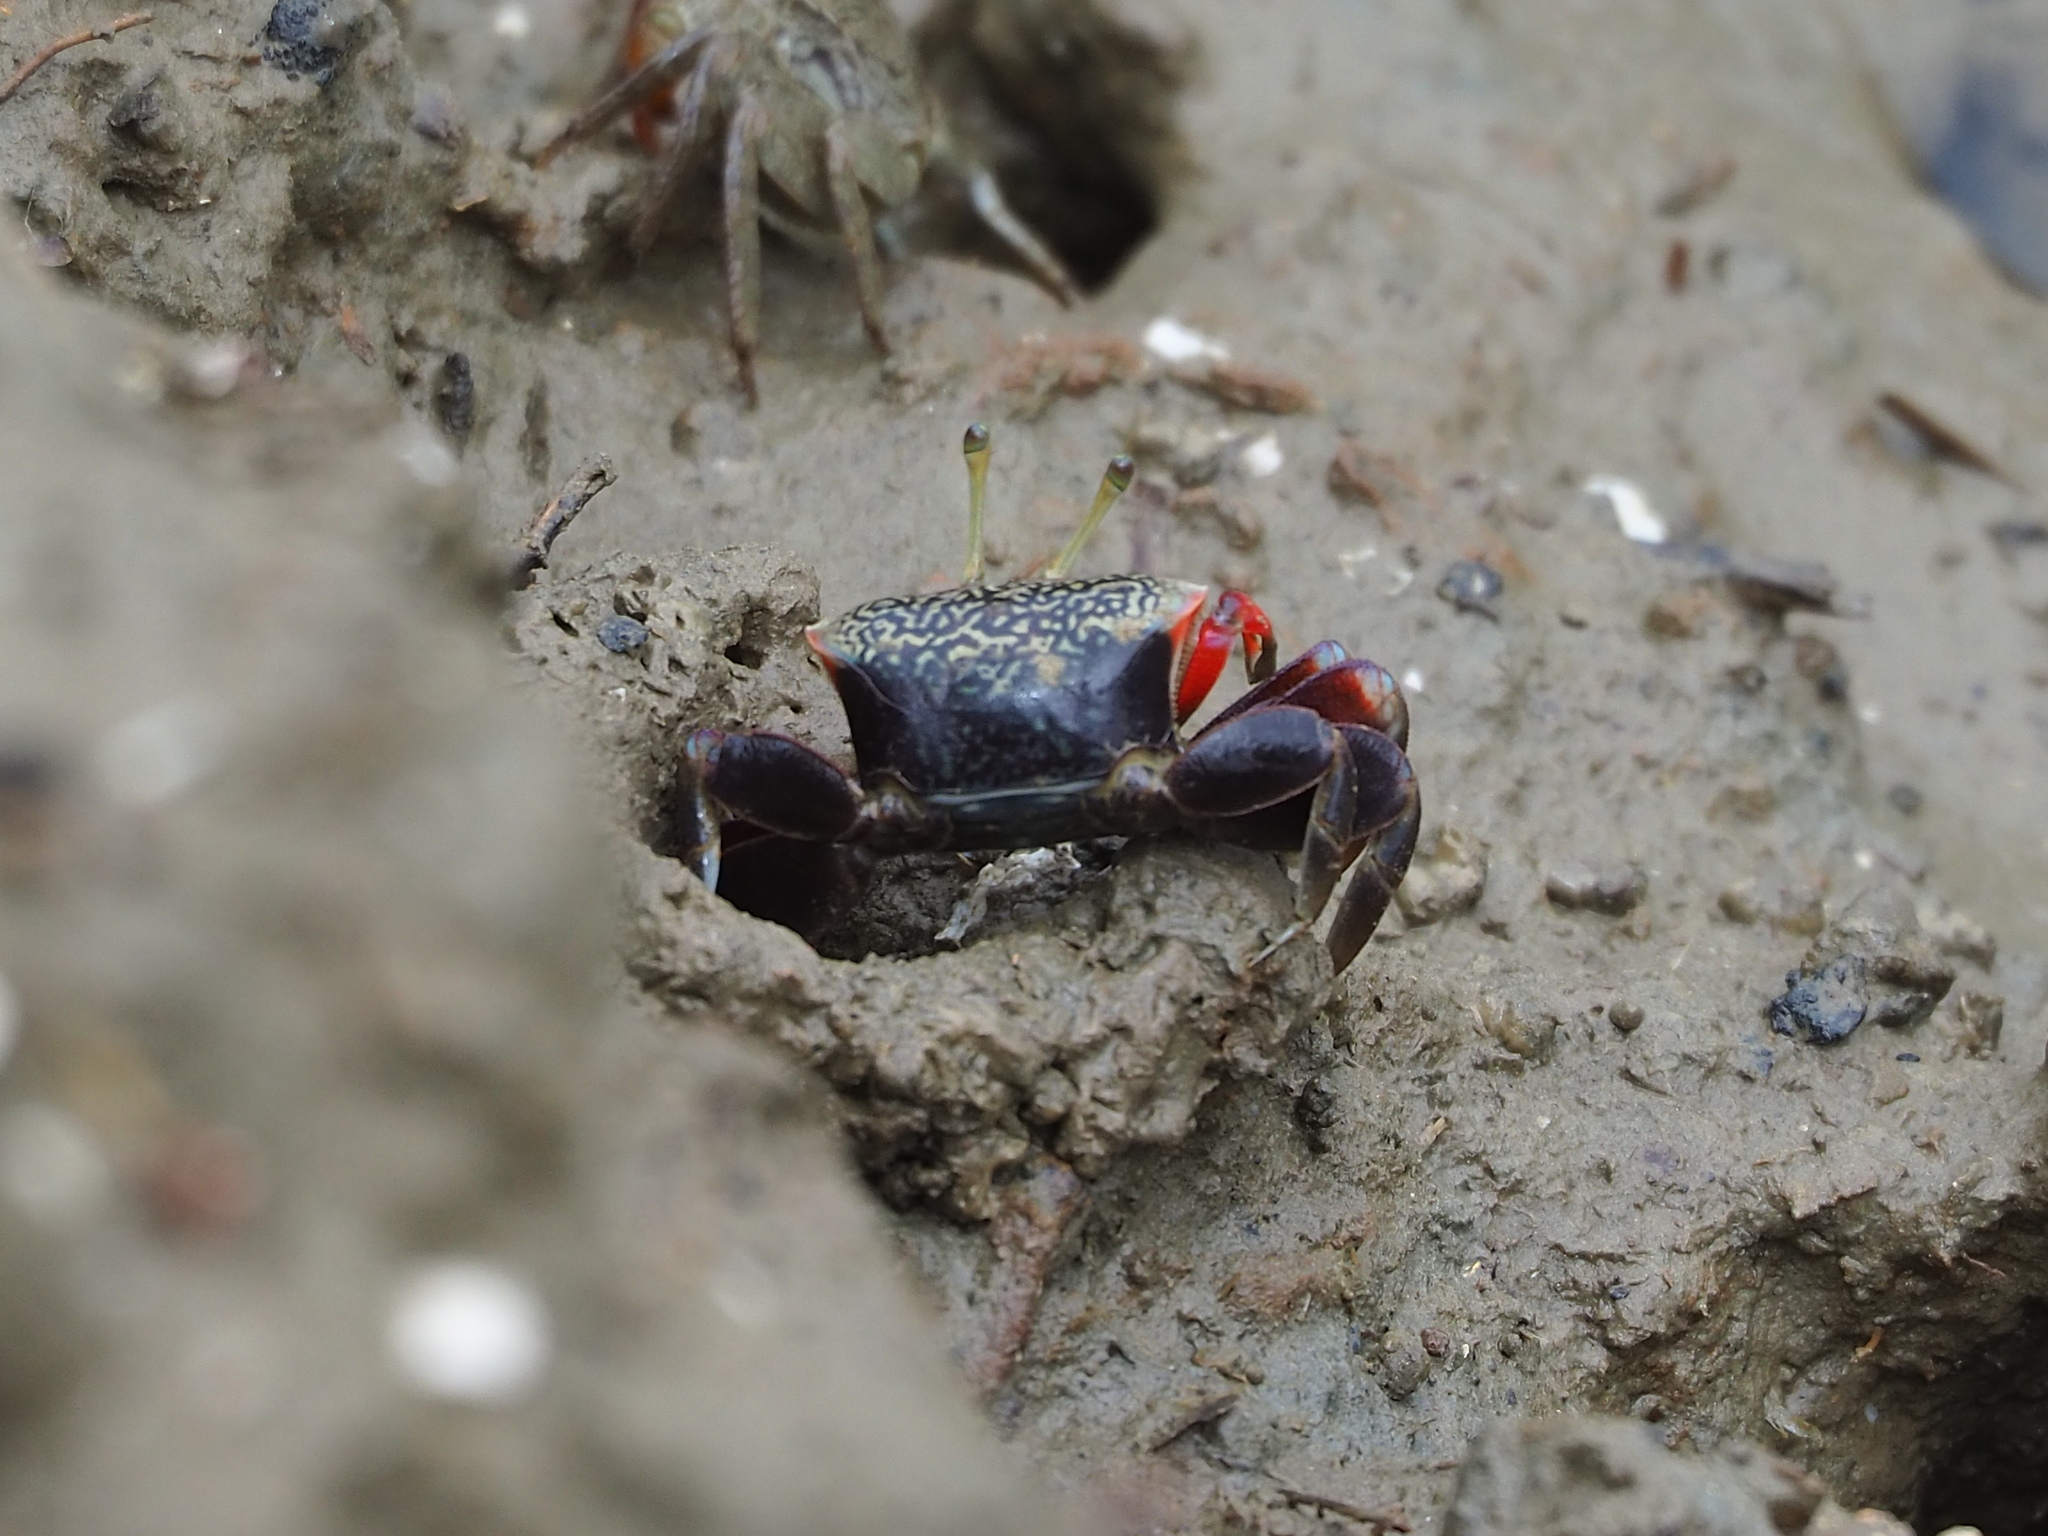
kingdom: Animalia
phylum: Arthropoda
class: Malacostraca
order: Decapoda
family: Ocypodidae
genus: Tubuca
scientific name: Tubuca arcuata
